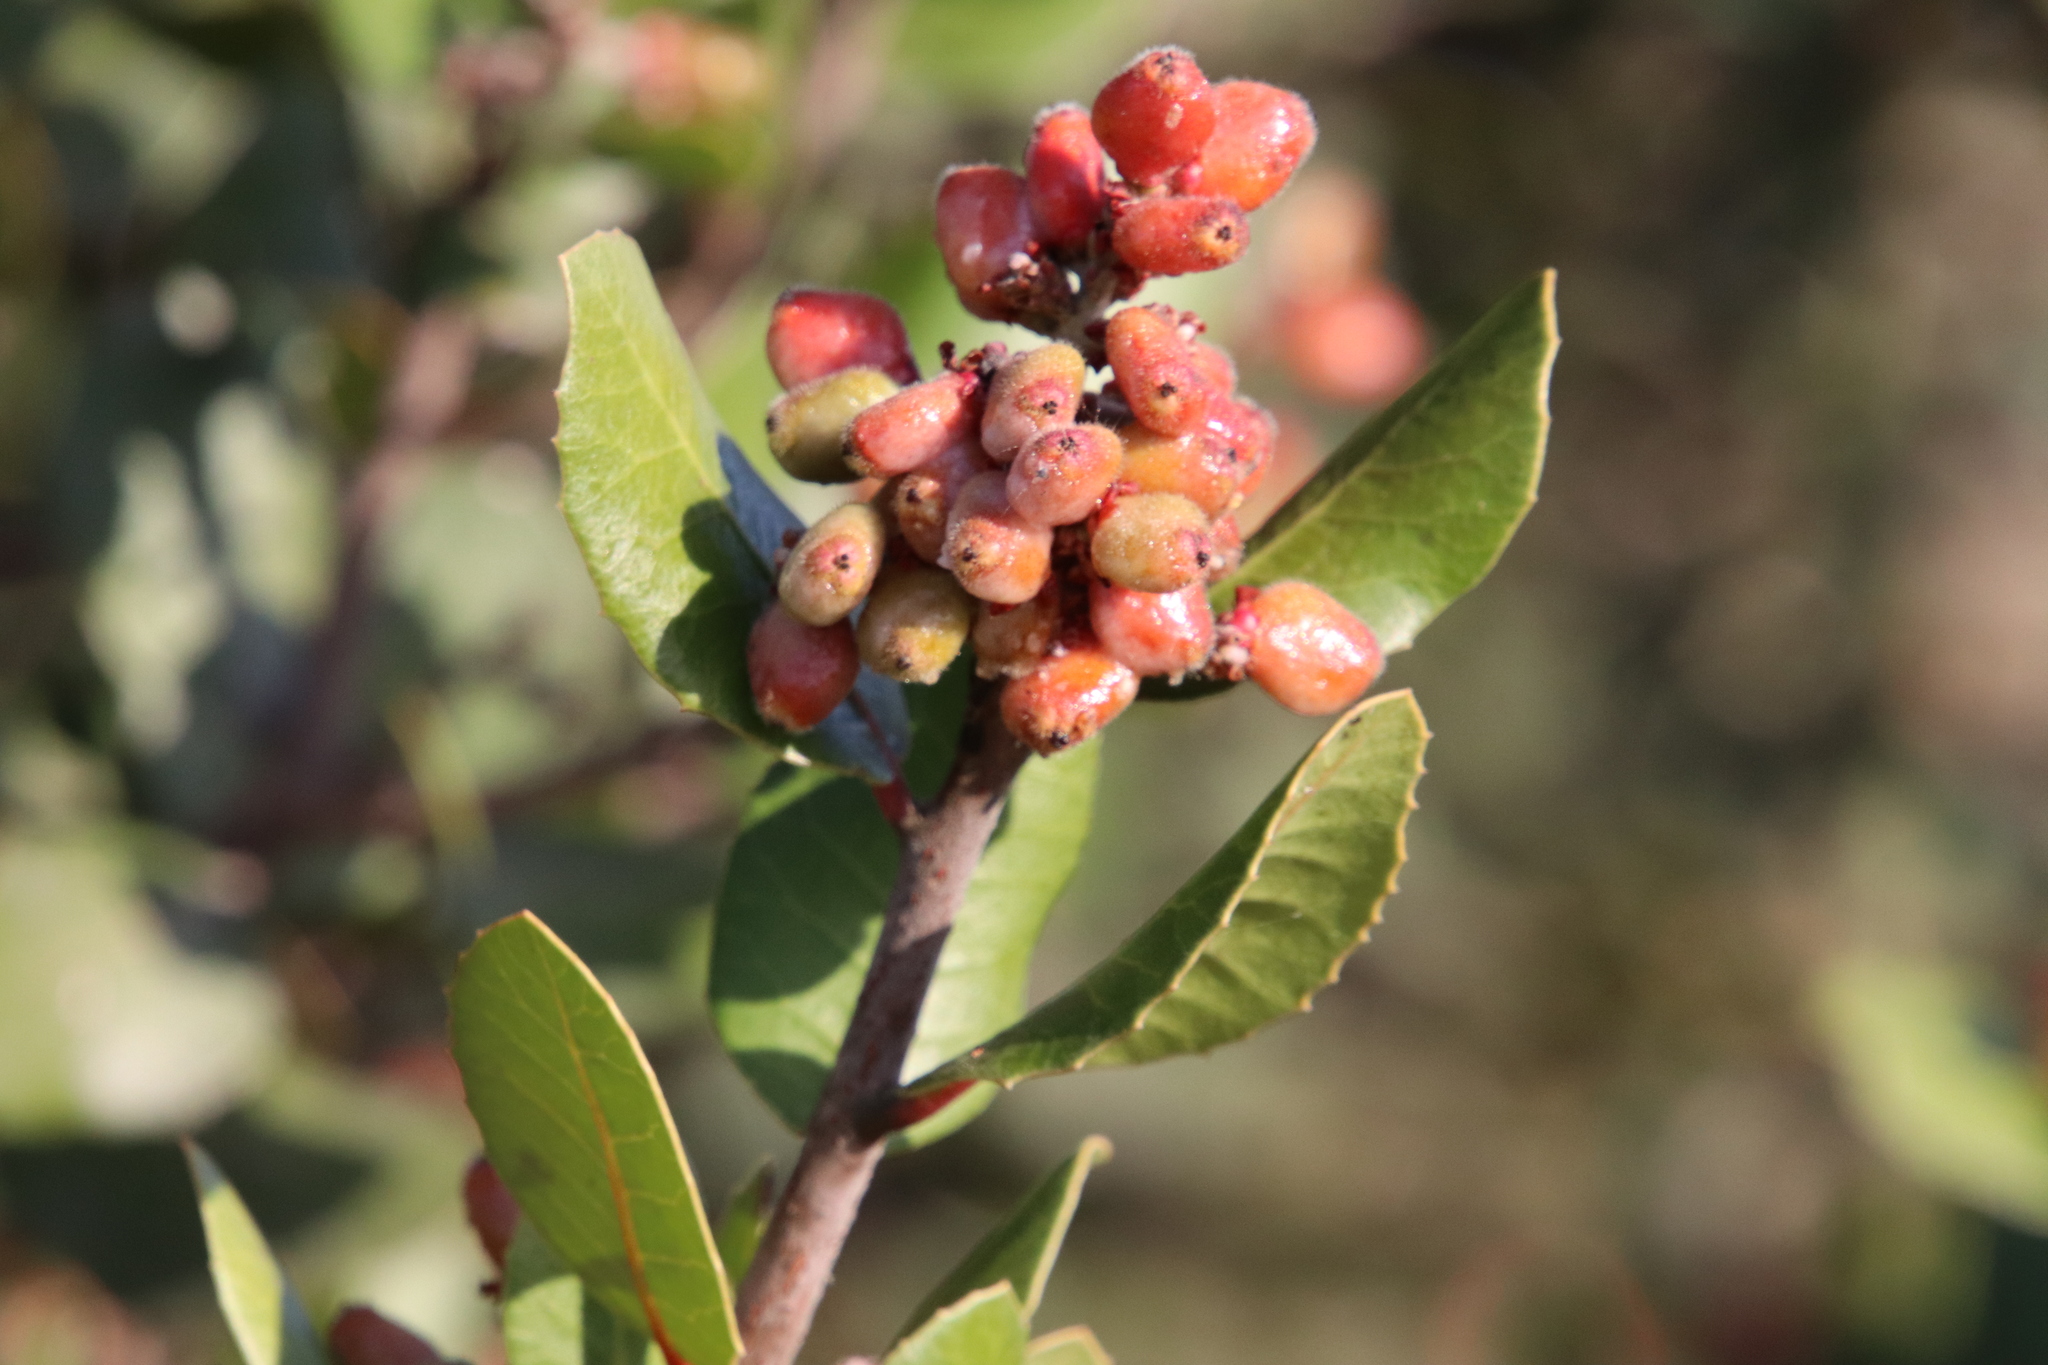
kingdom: Plantae
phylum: Tracheophyta
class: Magnoliopsida
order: Sapindales
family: Anacardiaceae
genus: Rhus
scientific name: Rhus integrifolia
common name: Lemonade sumac
